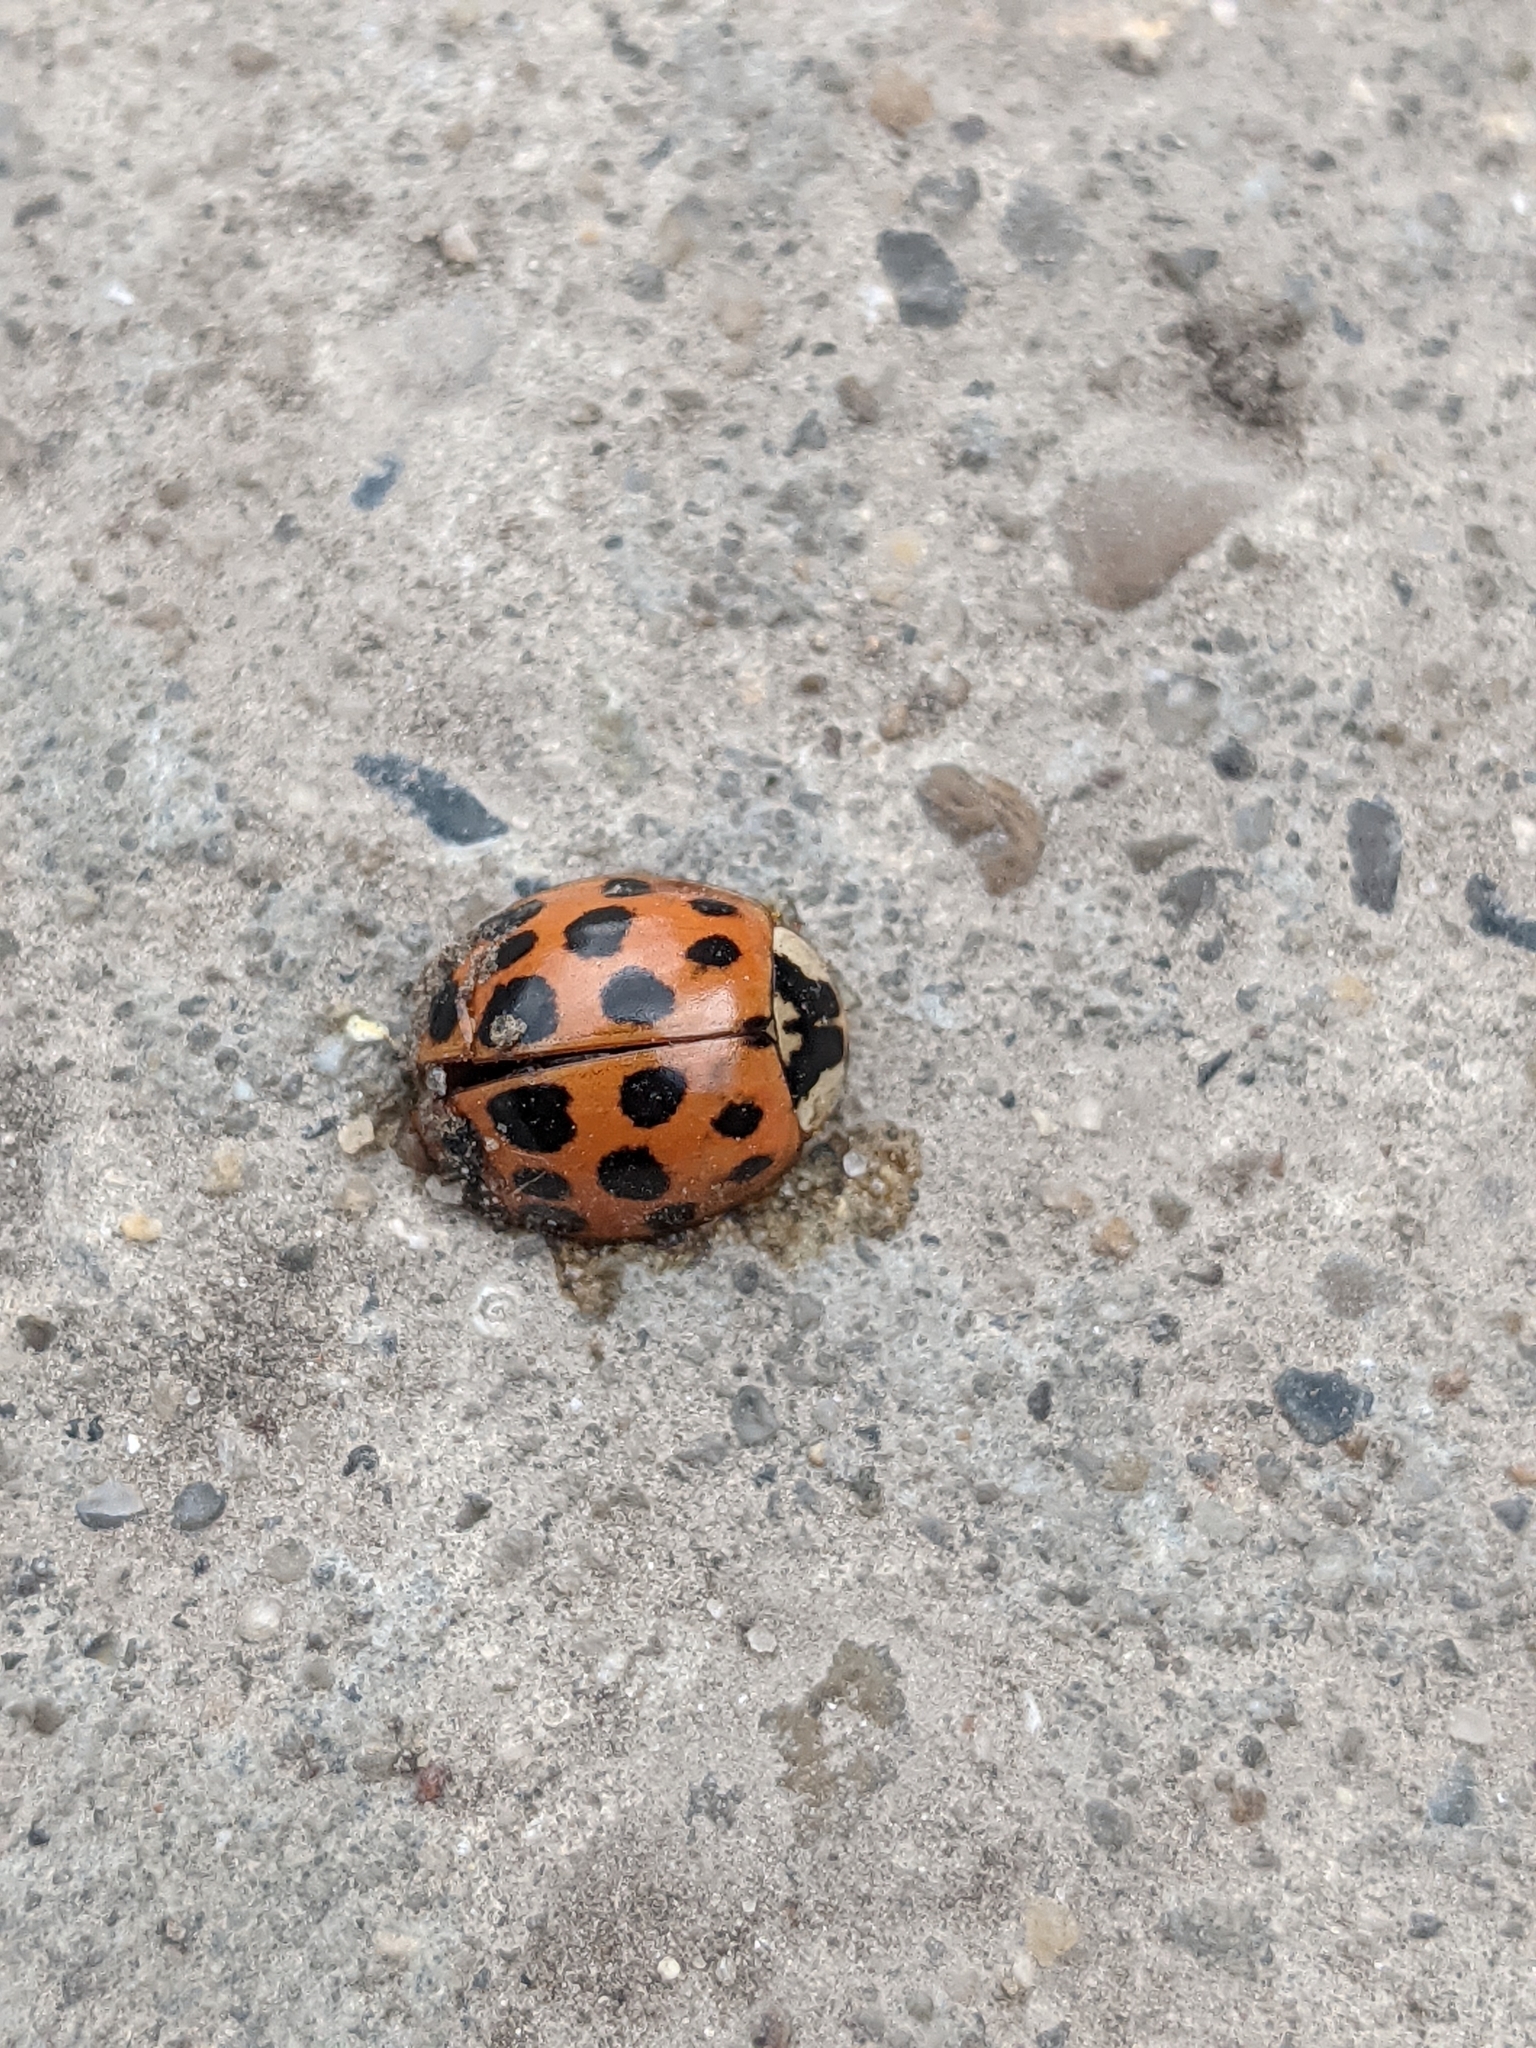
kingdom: Animalia
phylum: Arthropoda
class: Insecta
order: Coleoptera
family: Coccinellidae
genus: Harmonia
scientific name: Harmonia axyridis
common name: Harlequin ladybird
